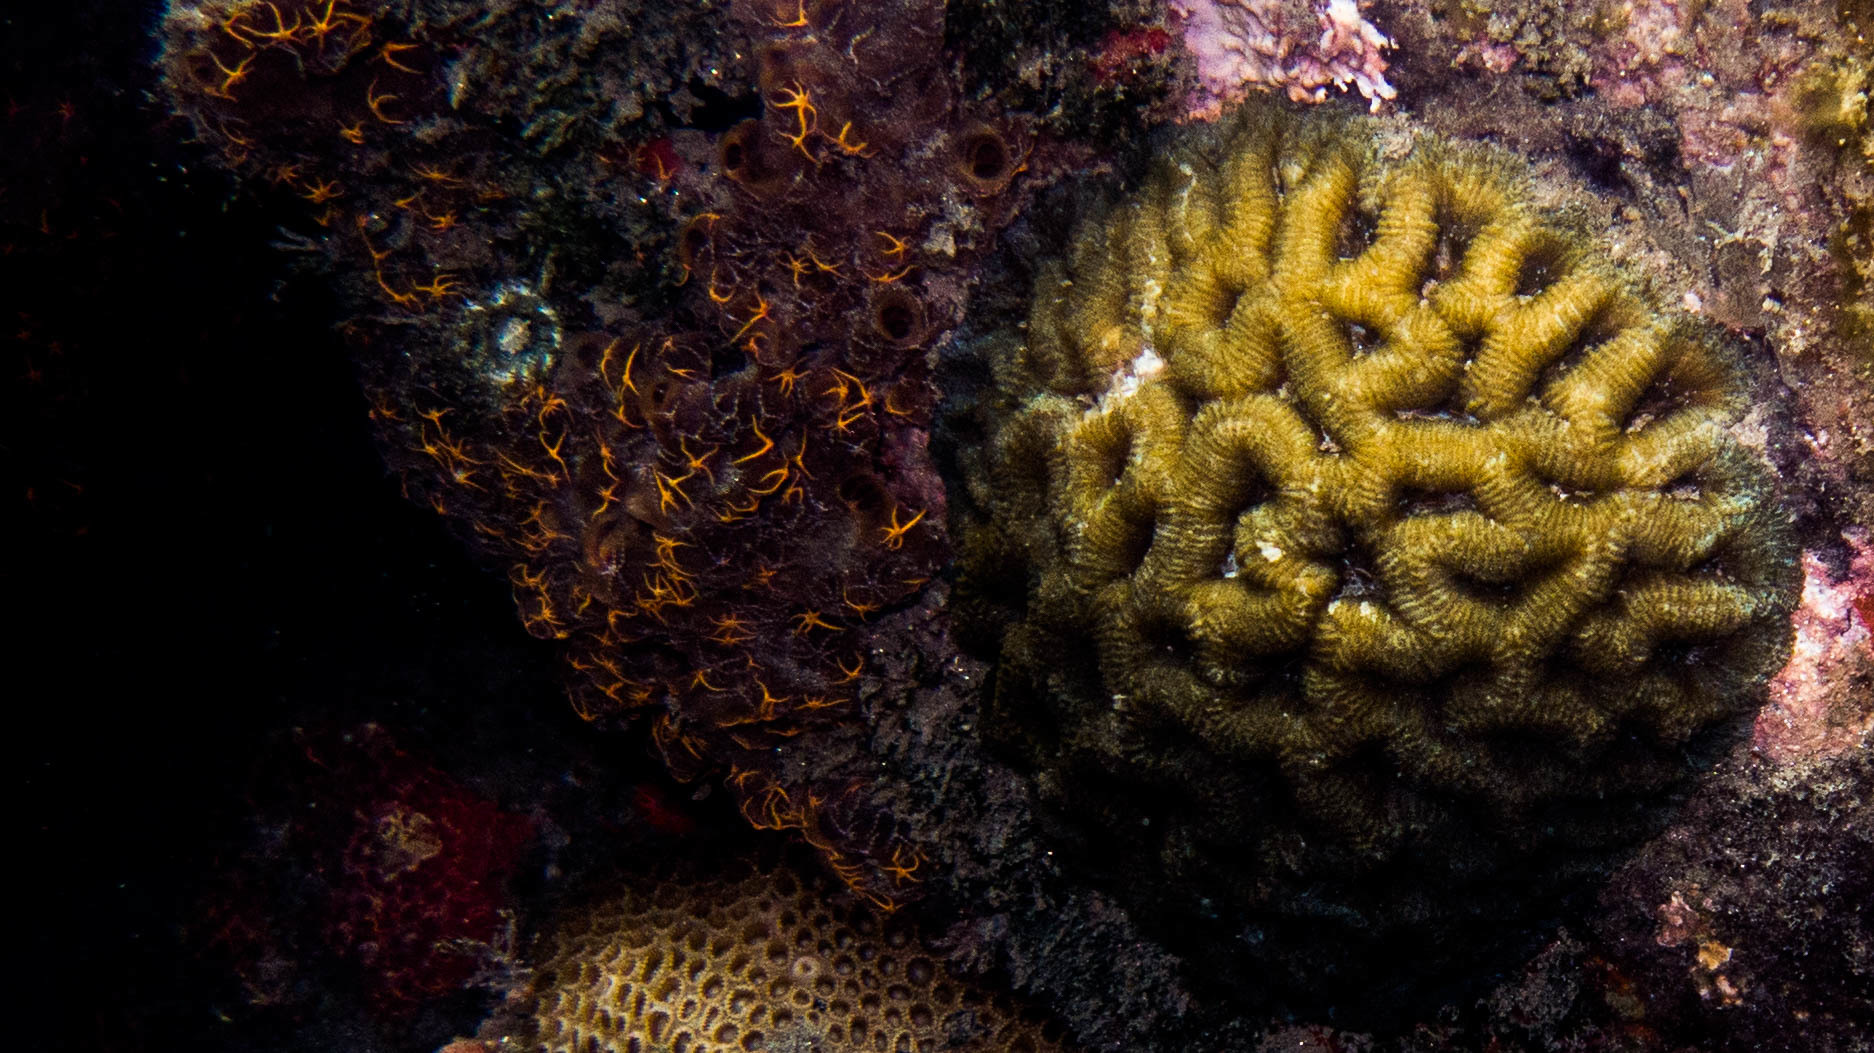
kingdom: Animalia
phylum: Cnidaria
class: Anthozoa
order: Scleractinia
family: Faviidae
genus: Mussismilia
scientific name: Mussismilia hispida
